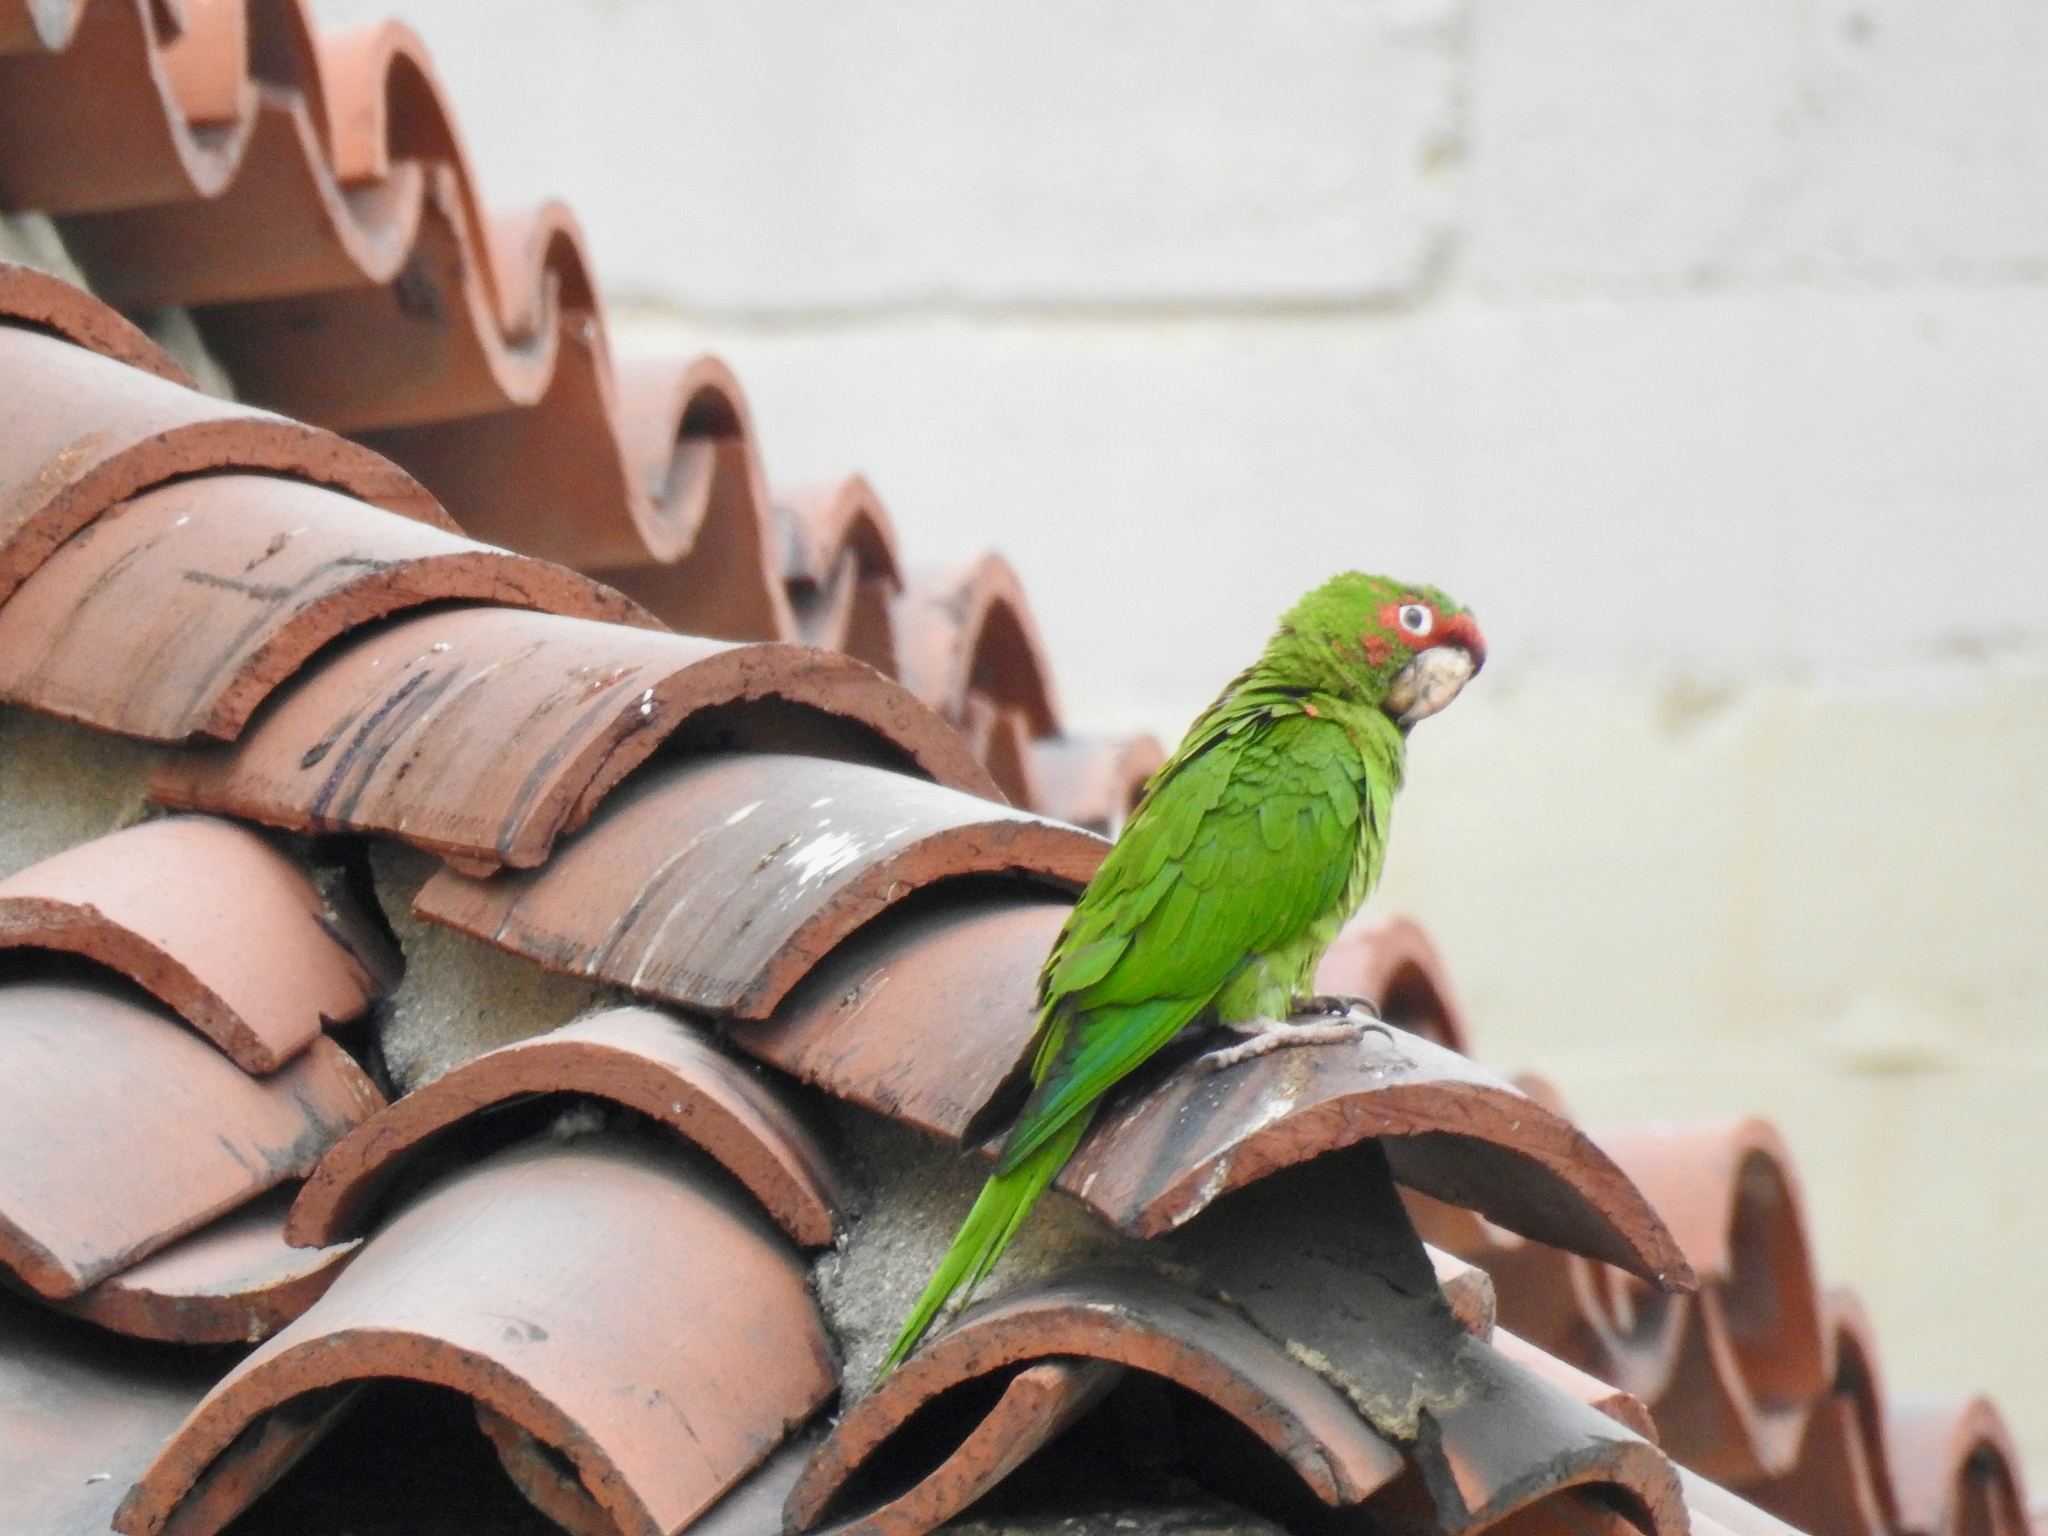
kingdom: Animalia
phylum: Chordata
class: Aves
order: Psittaciformes
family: Psittacidae
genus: Aratinga
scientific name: Aratinga mitrata
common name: Mitred parakeet
